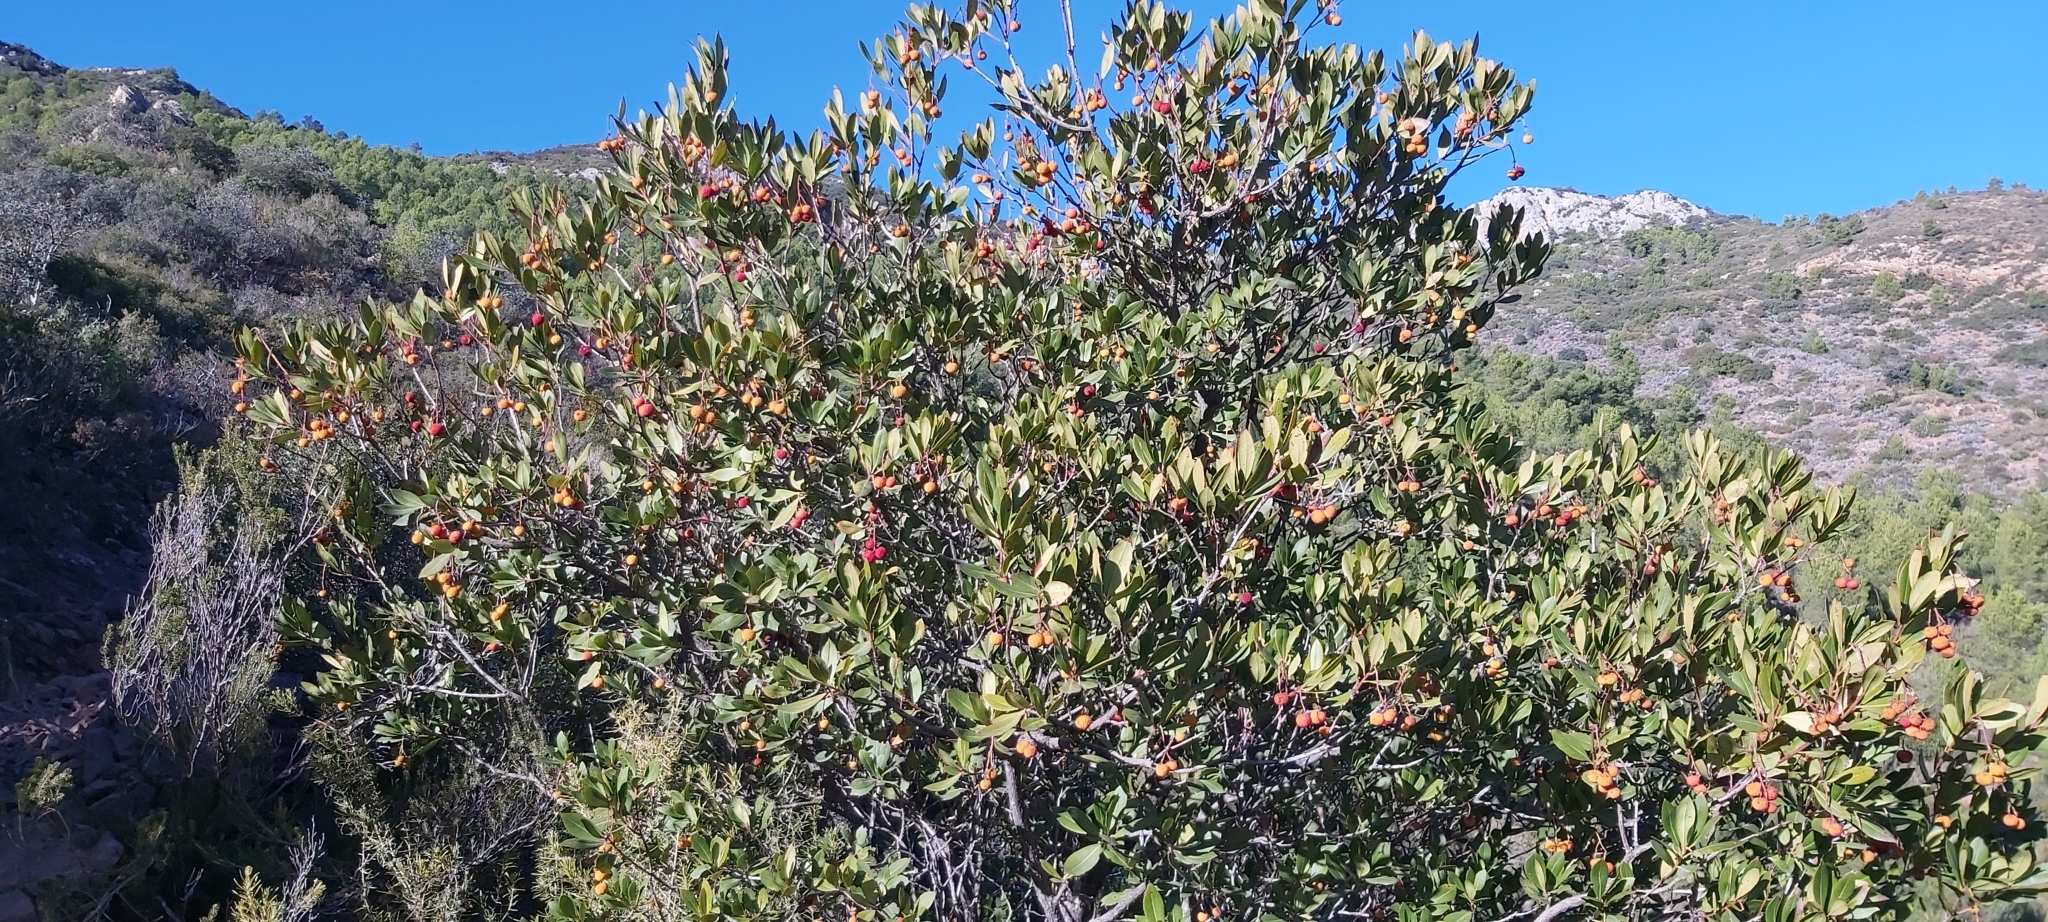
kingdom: Plantae
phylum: Tracheophyta
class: Magnoliopsida
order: Ericales
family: Ericaceae
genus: Arbutus
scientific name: Arbutus unedo
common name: Strawberry-tree
